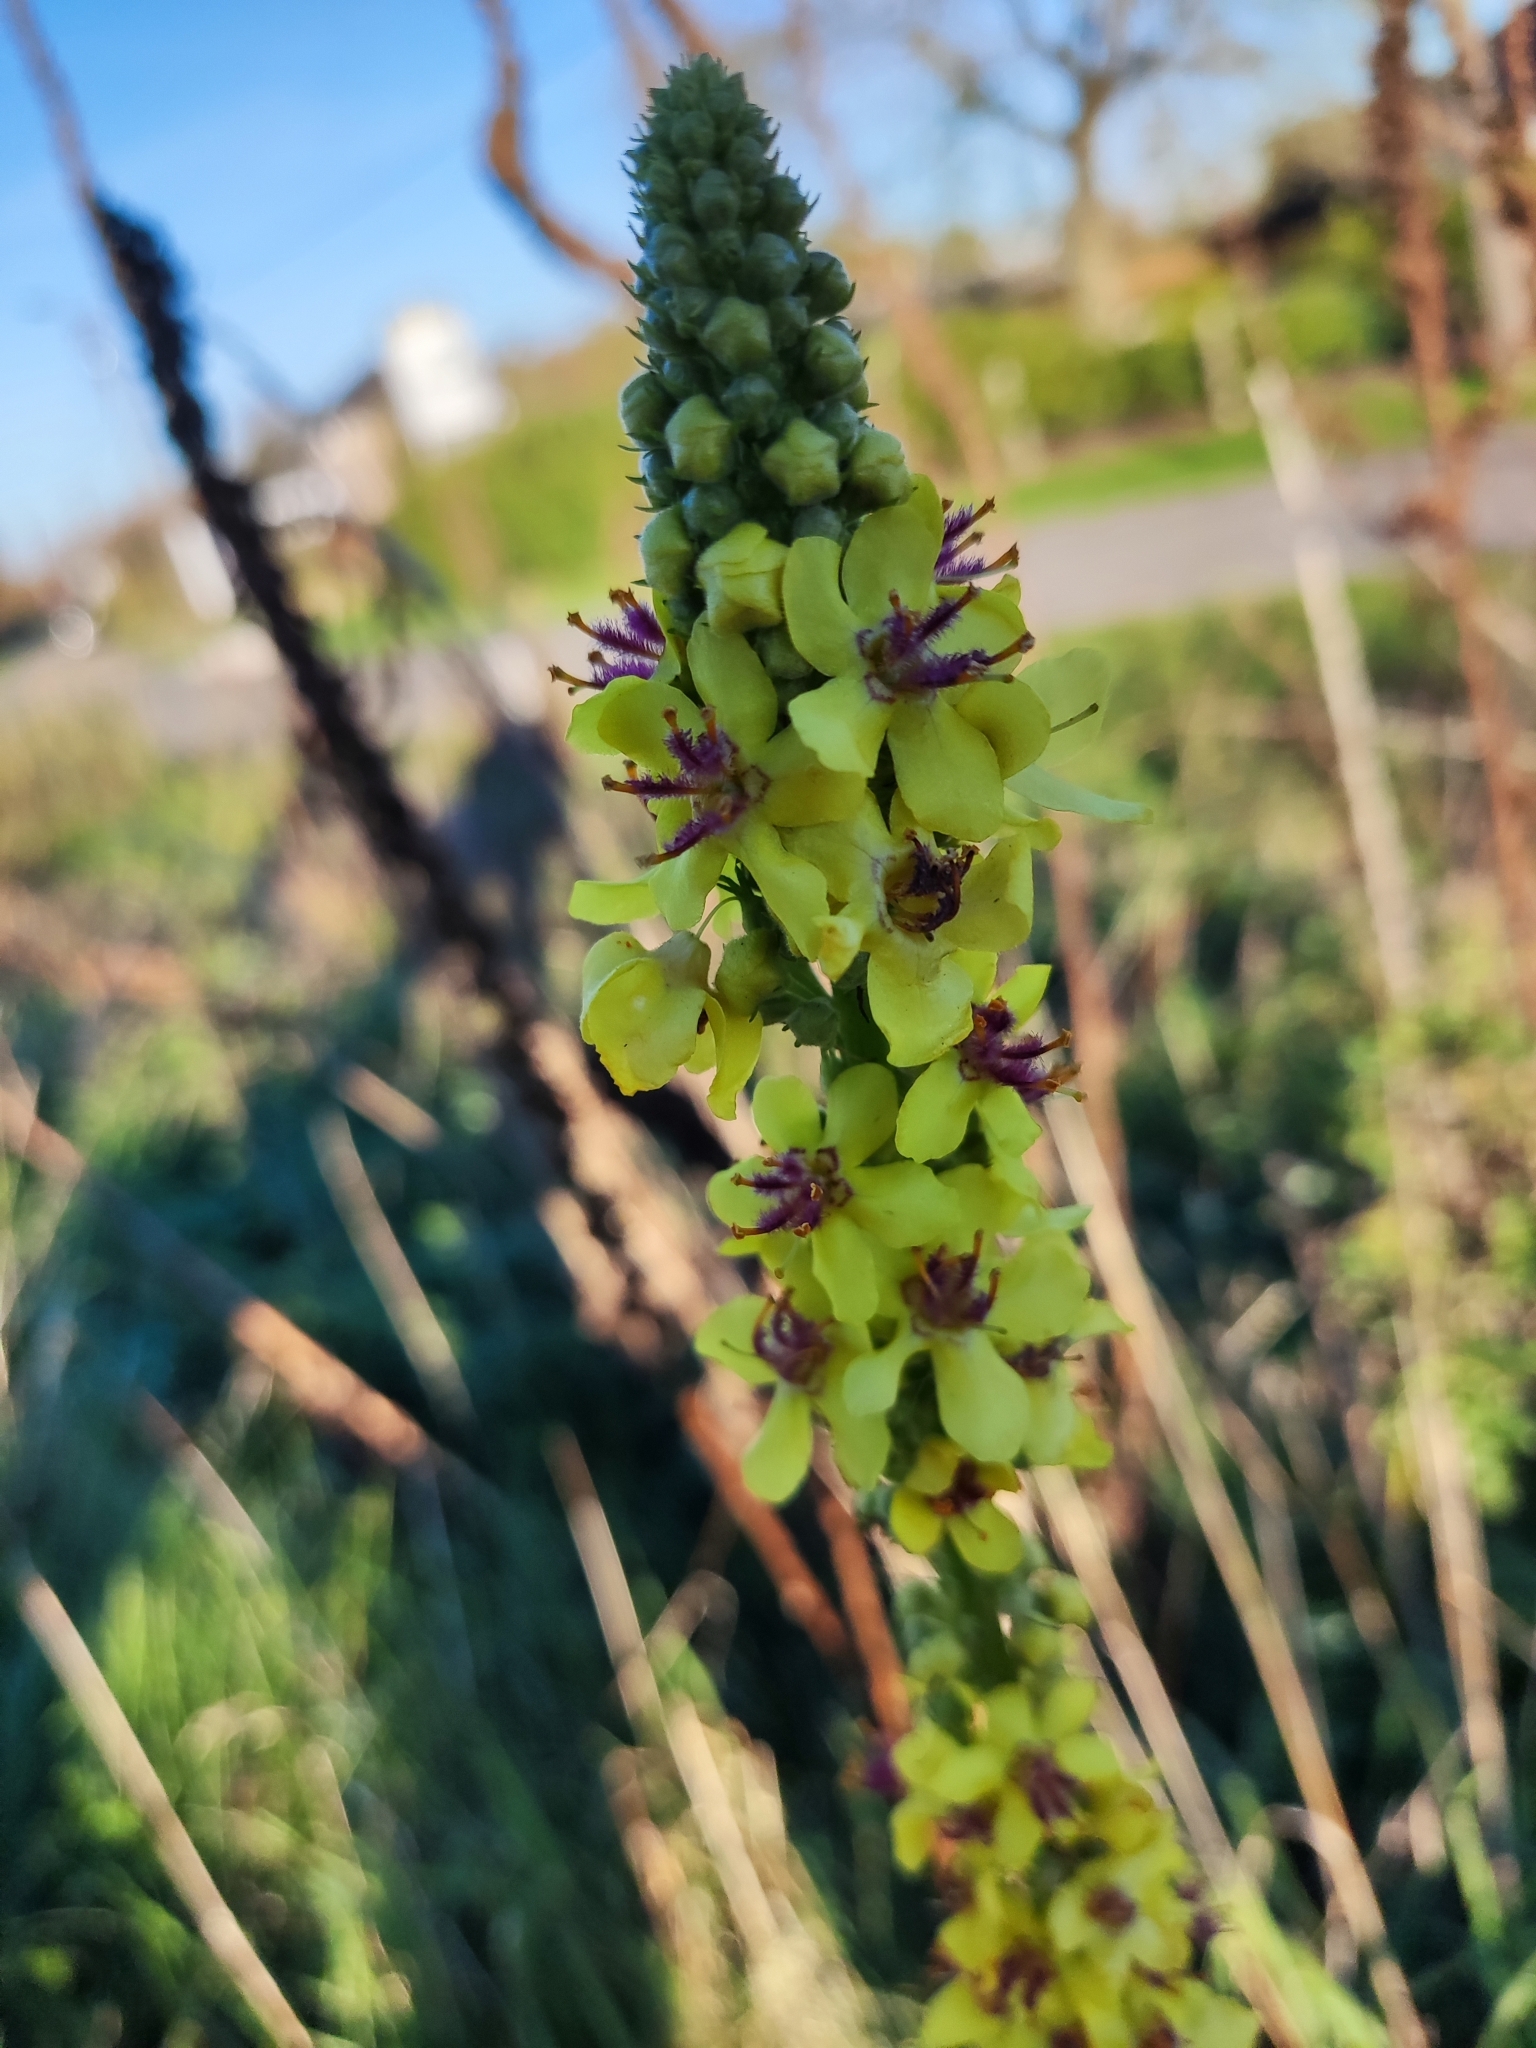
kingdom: Plantae
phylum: Tracheophyta
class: Magnoliopsida
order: Lamiales
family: Scrophulariaceae
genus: Verbascum
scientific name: Verbascum nigrum
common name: Dark mullein
